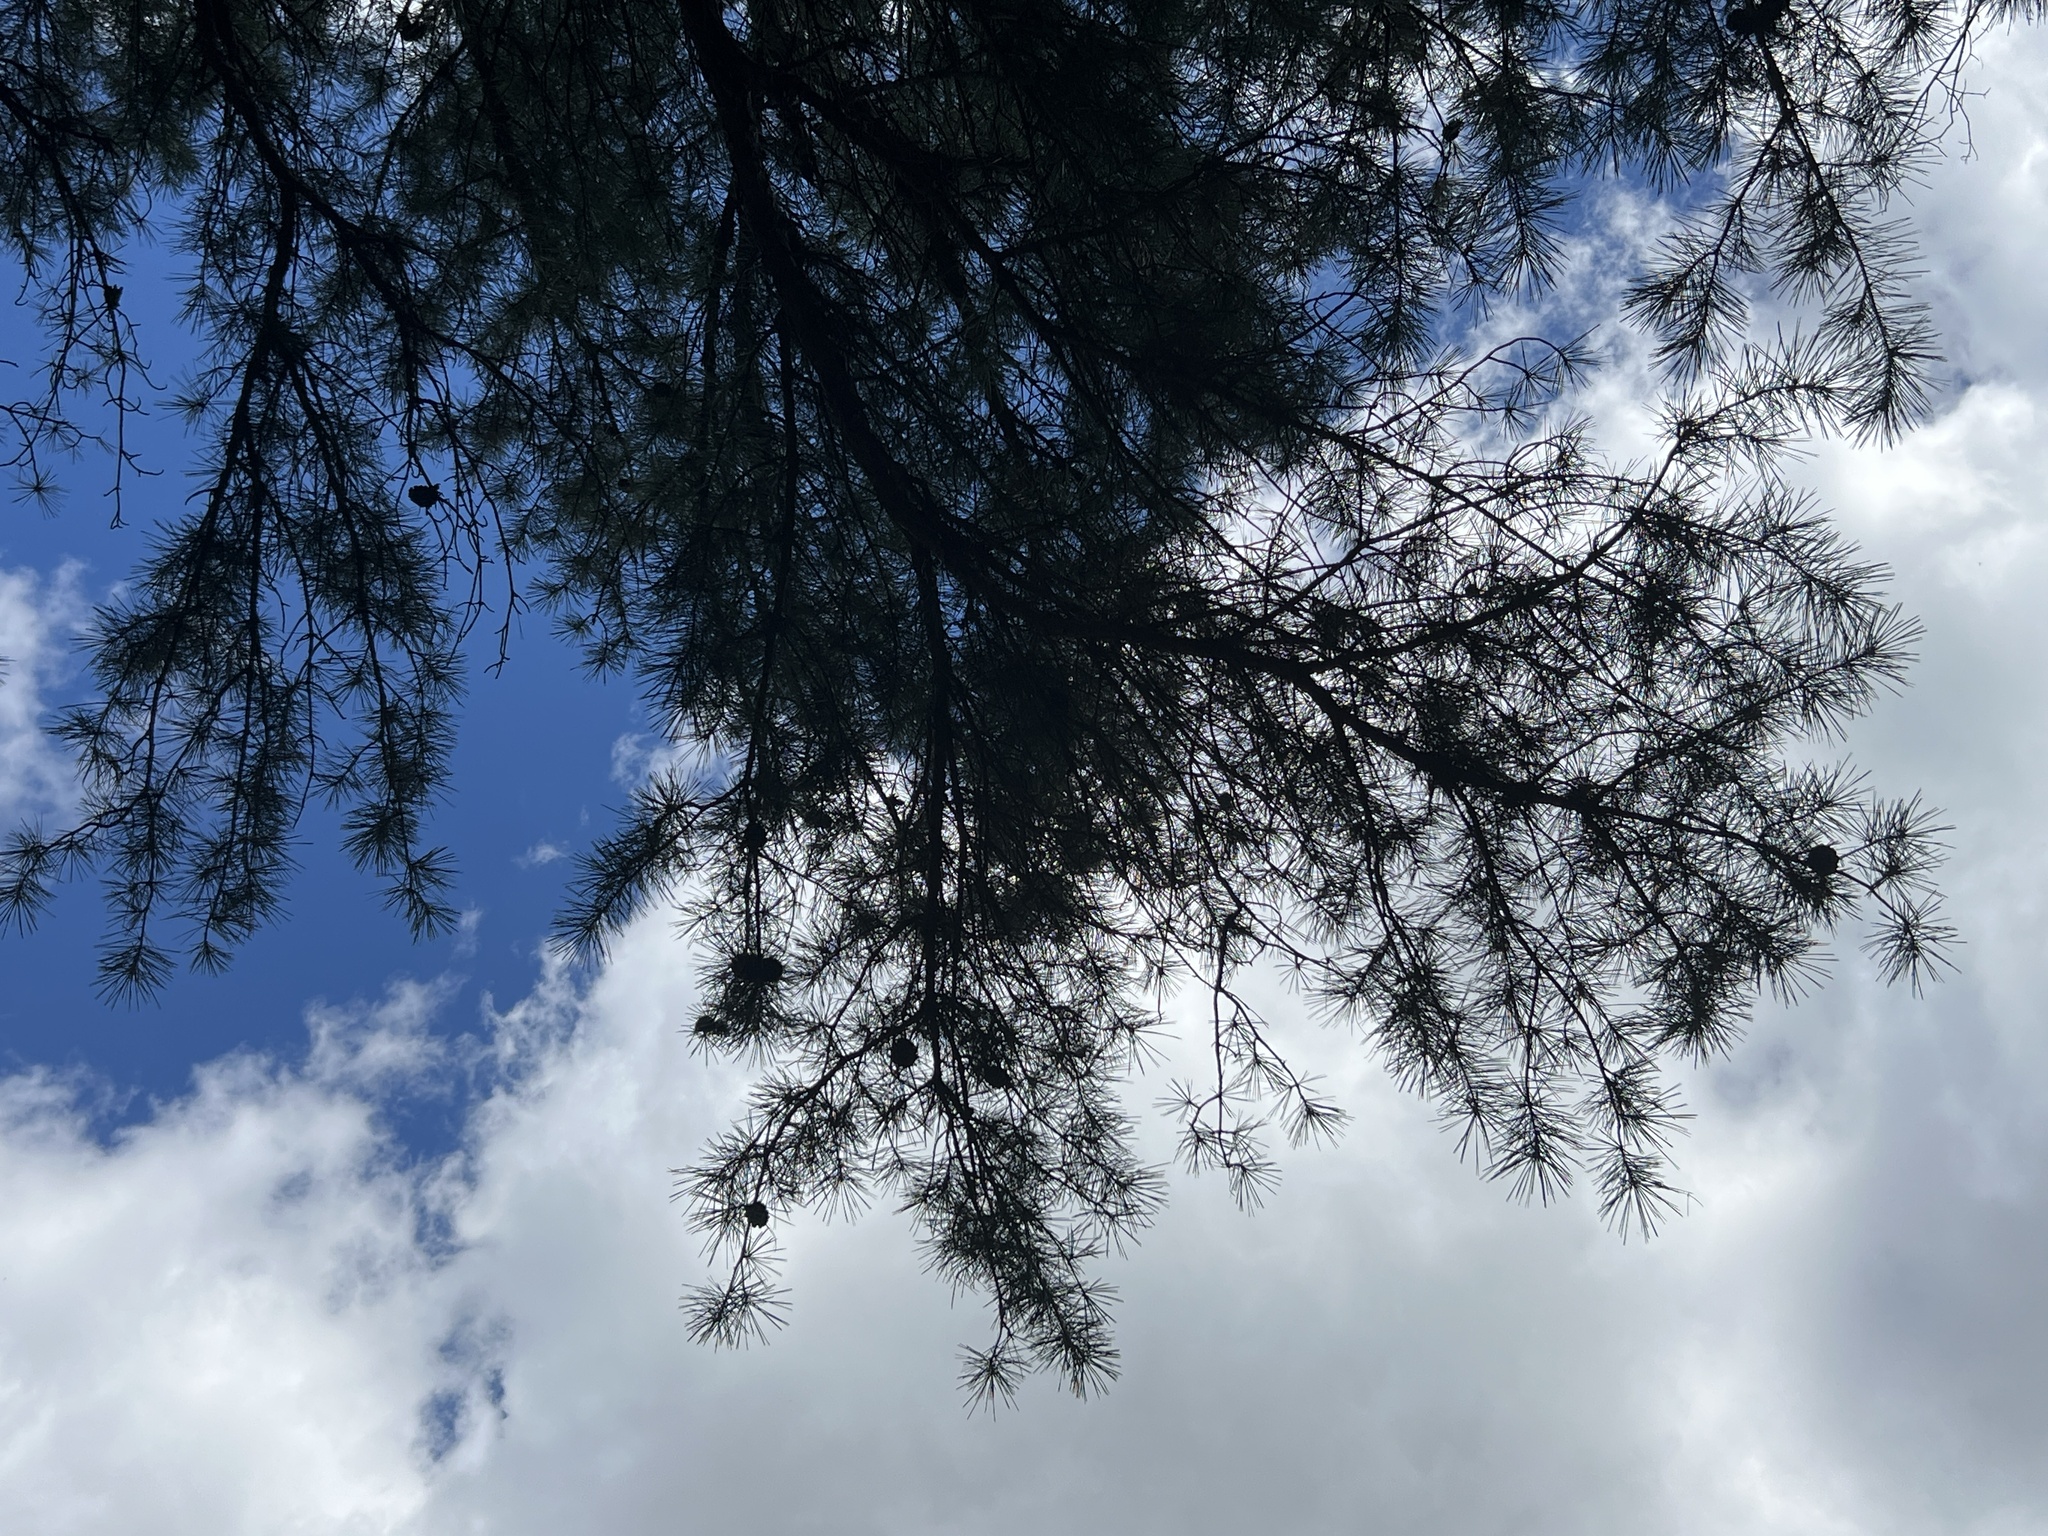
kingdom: Plantae
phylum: Tracheophyta
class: Pinopsida
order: Pinales
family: Pinaceae
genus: Pinus
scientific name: Pinus echinata
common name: Shortleaf pine
